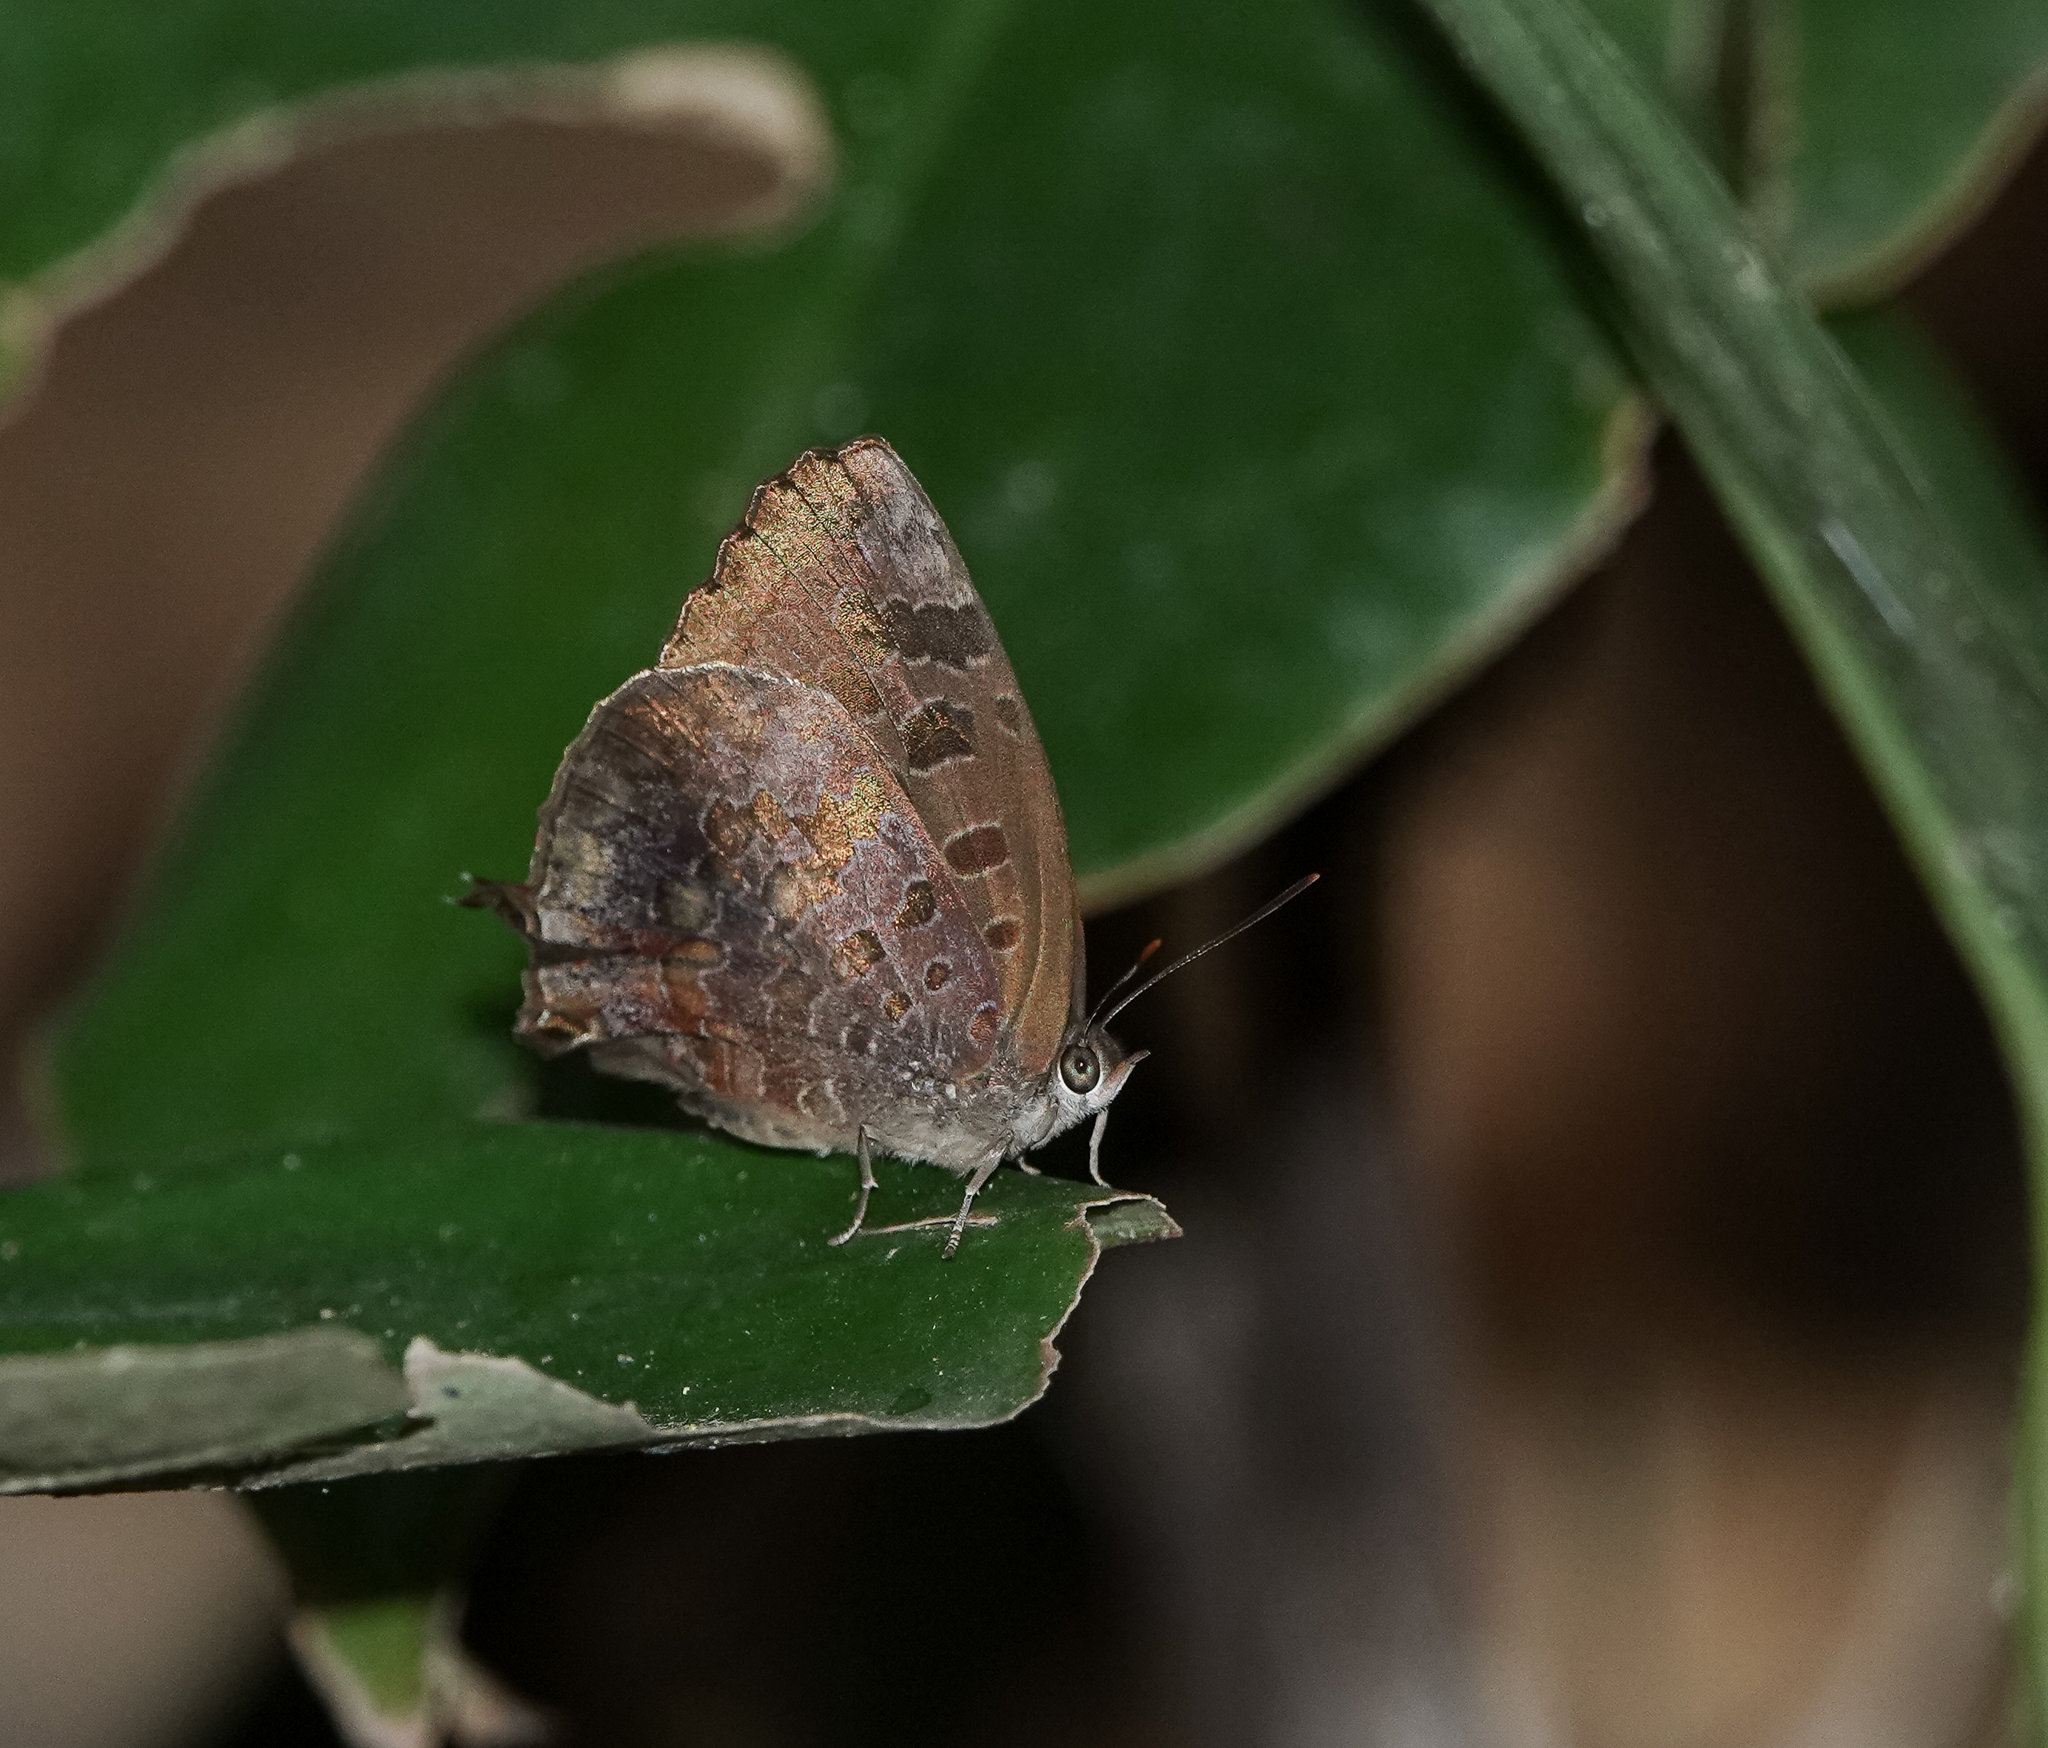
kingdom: Animalia
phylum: Arthropoda
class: Insecta
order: Lepidoptera
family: Lycaenidae
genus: Arhopala
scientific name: Arhopala bazalus
